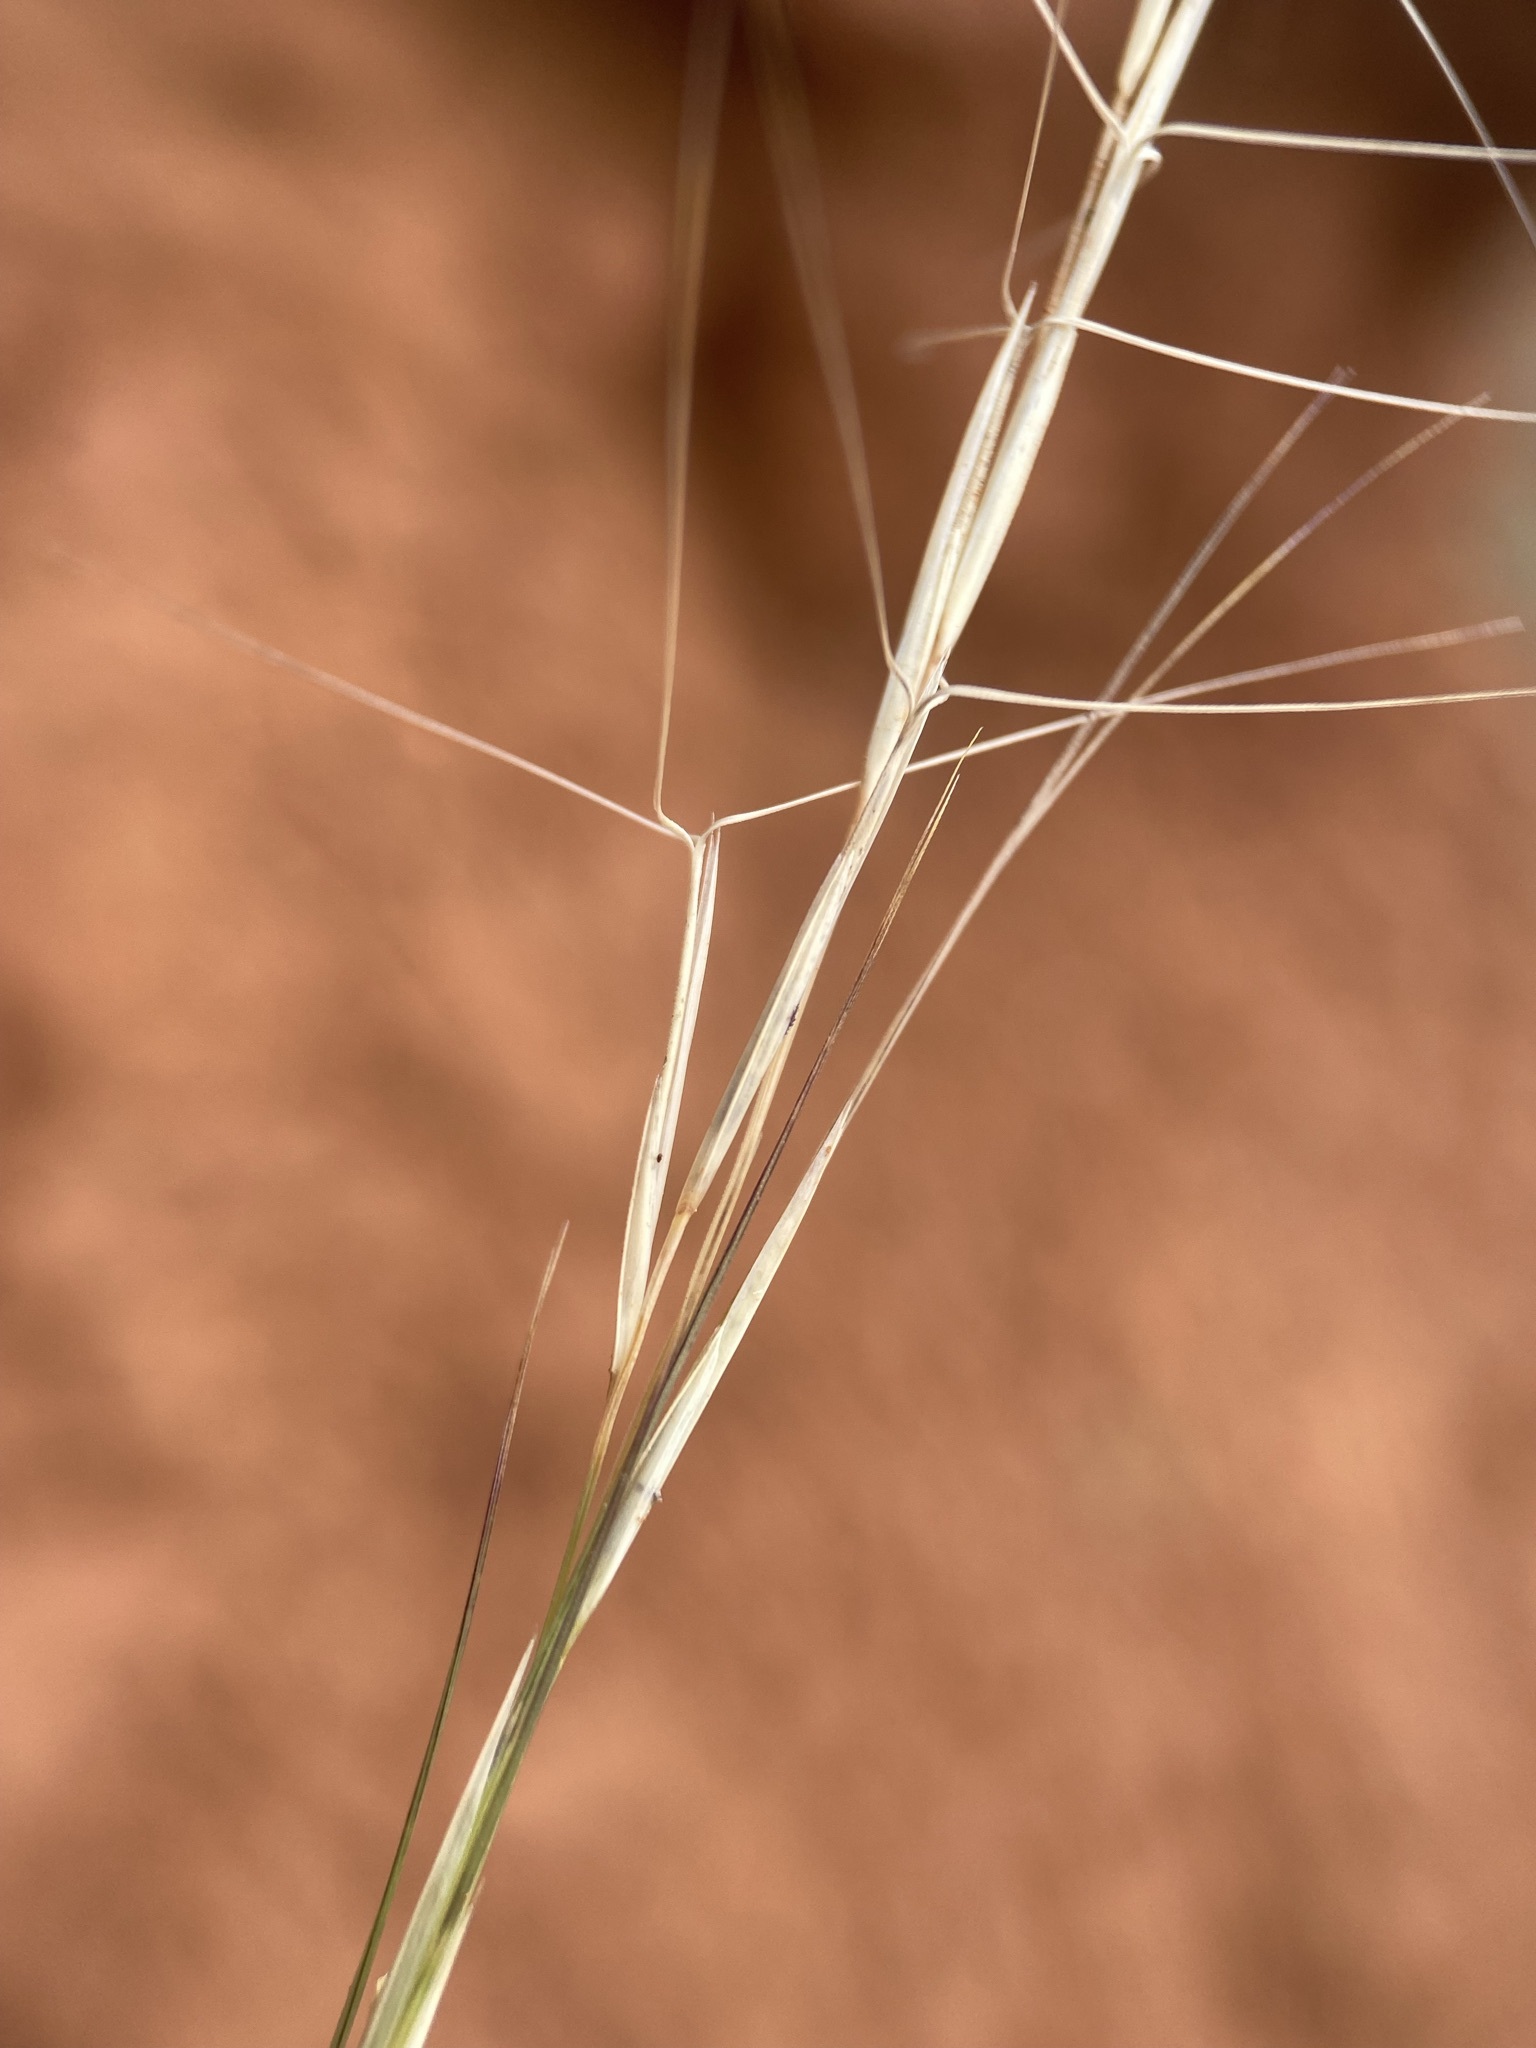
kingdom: Plantae
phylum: Tracheophyta
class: Liliopsida
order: Poales
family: Poaceae
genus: Aristida
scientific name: Aristida purpurea
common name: Purple threeawn
